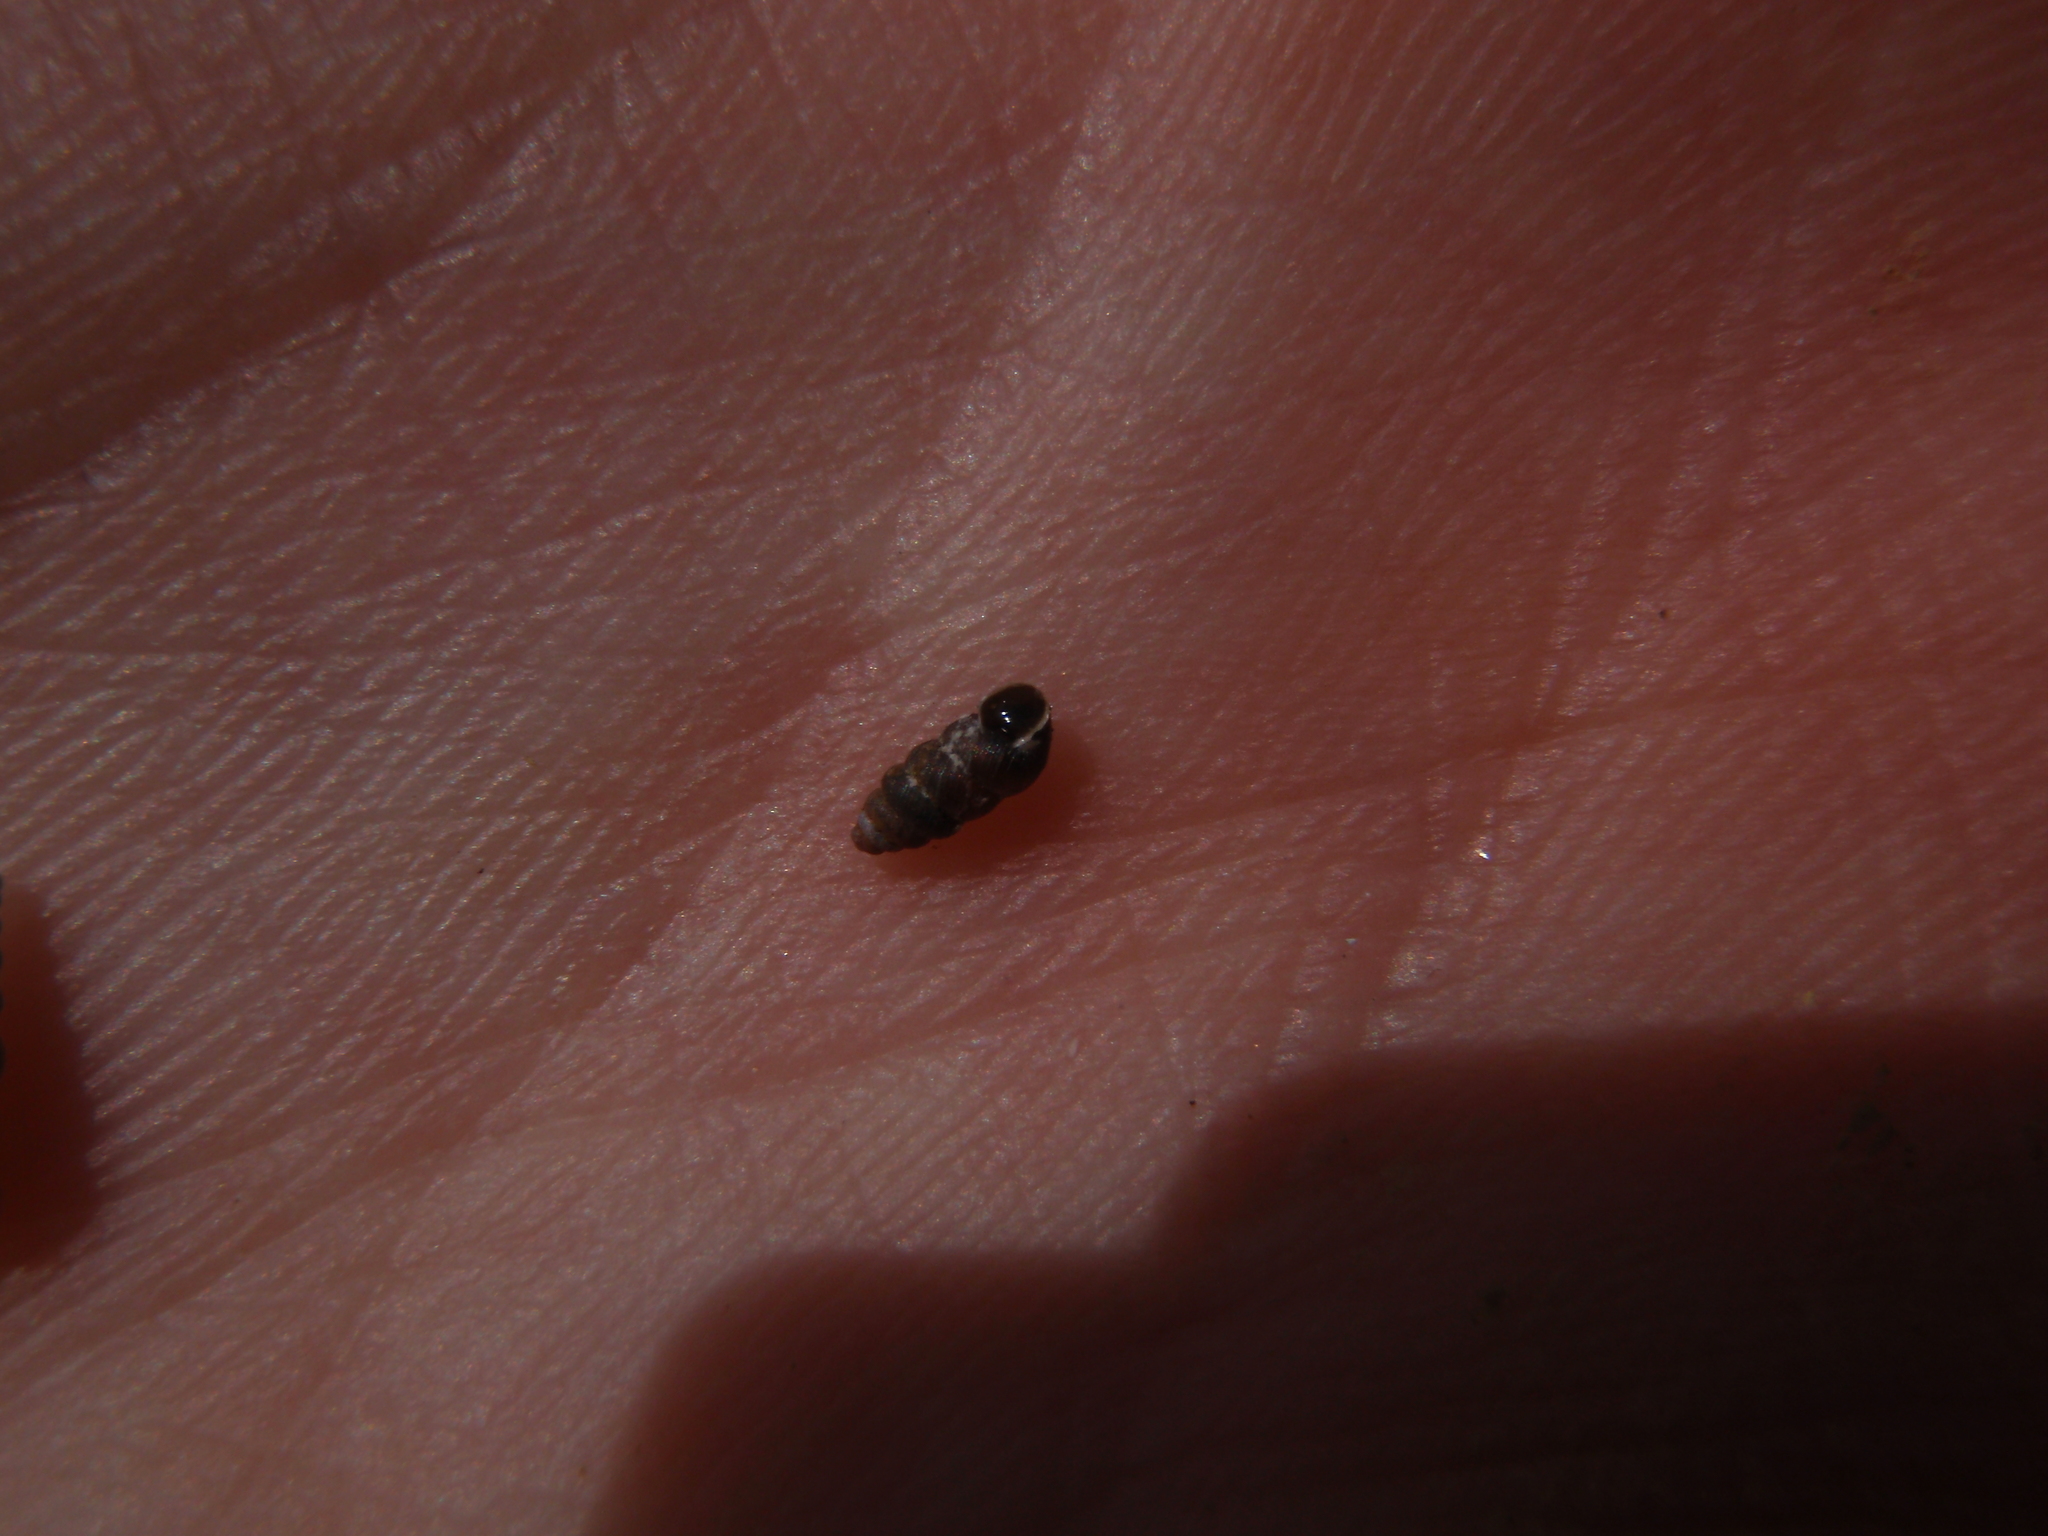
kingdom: Animalia
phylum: Mollusca
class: Gastropoda
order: Stylommatophora
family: Chondrinidae
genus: Granopupa
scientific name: Granopupa granum
